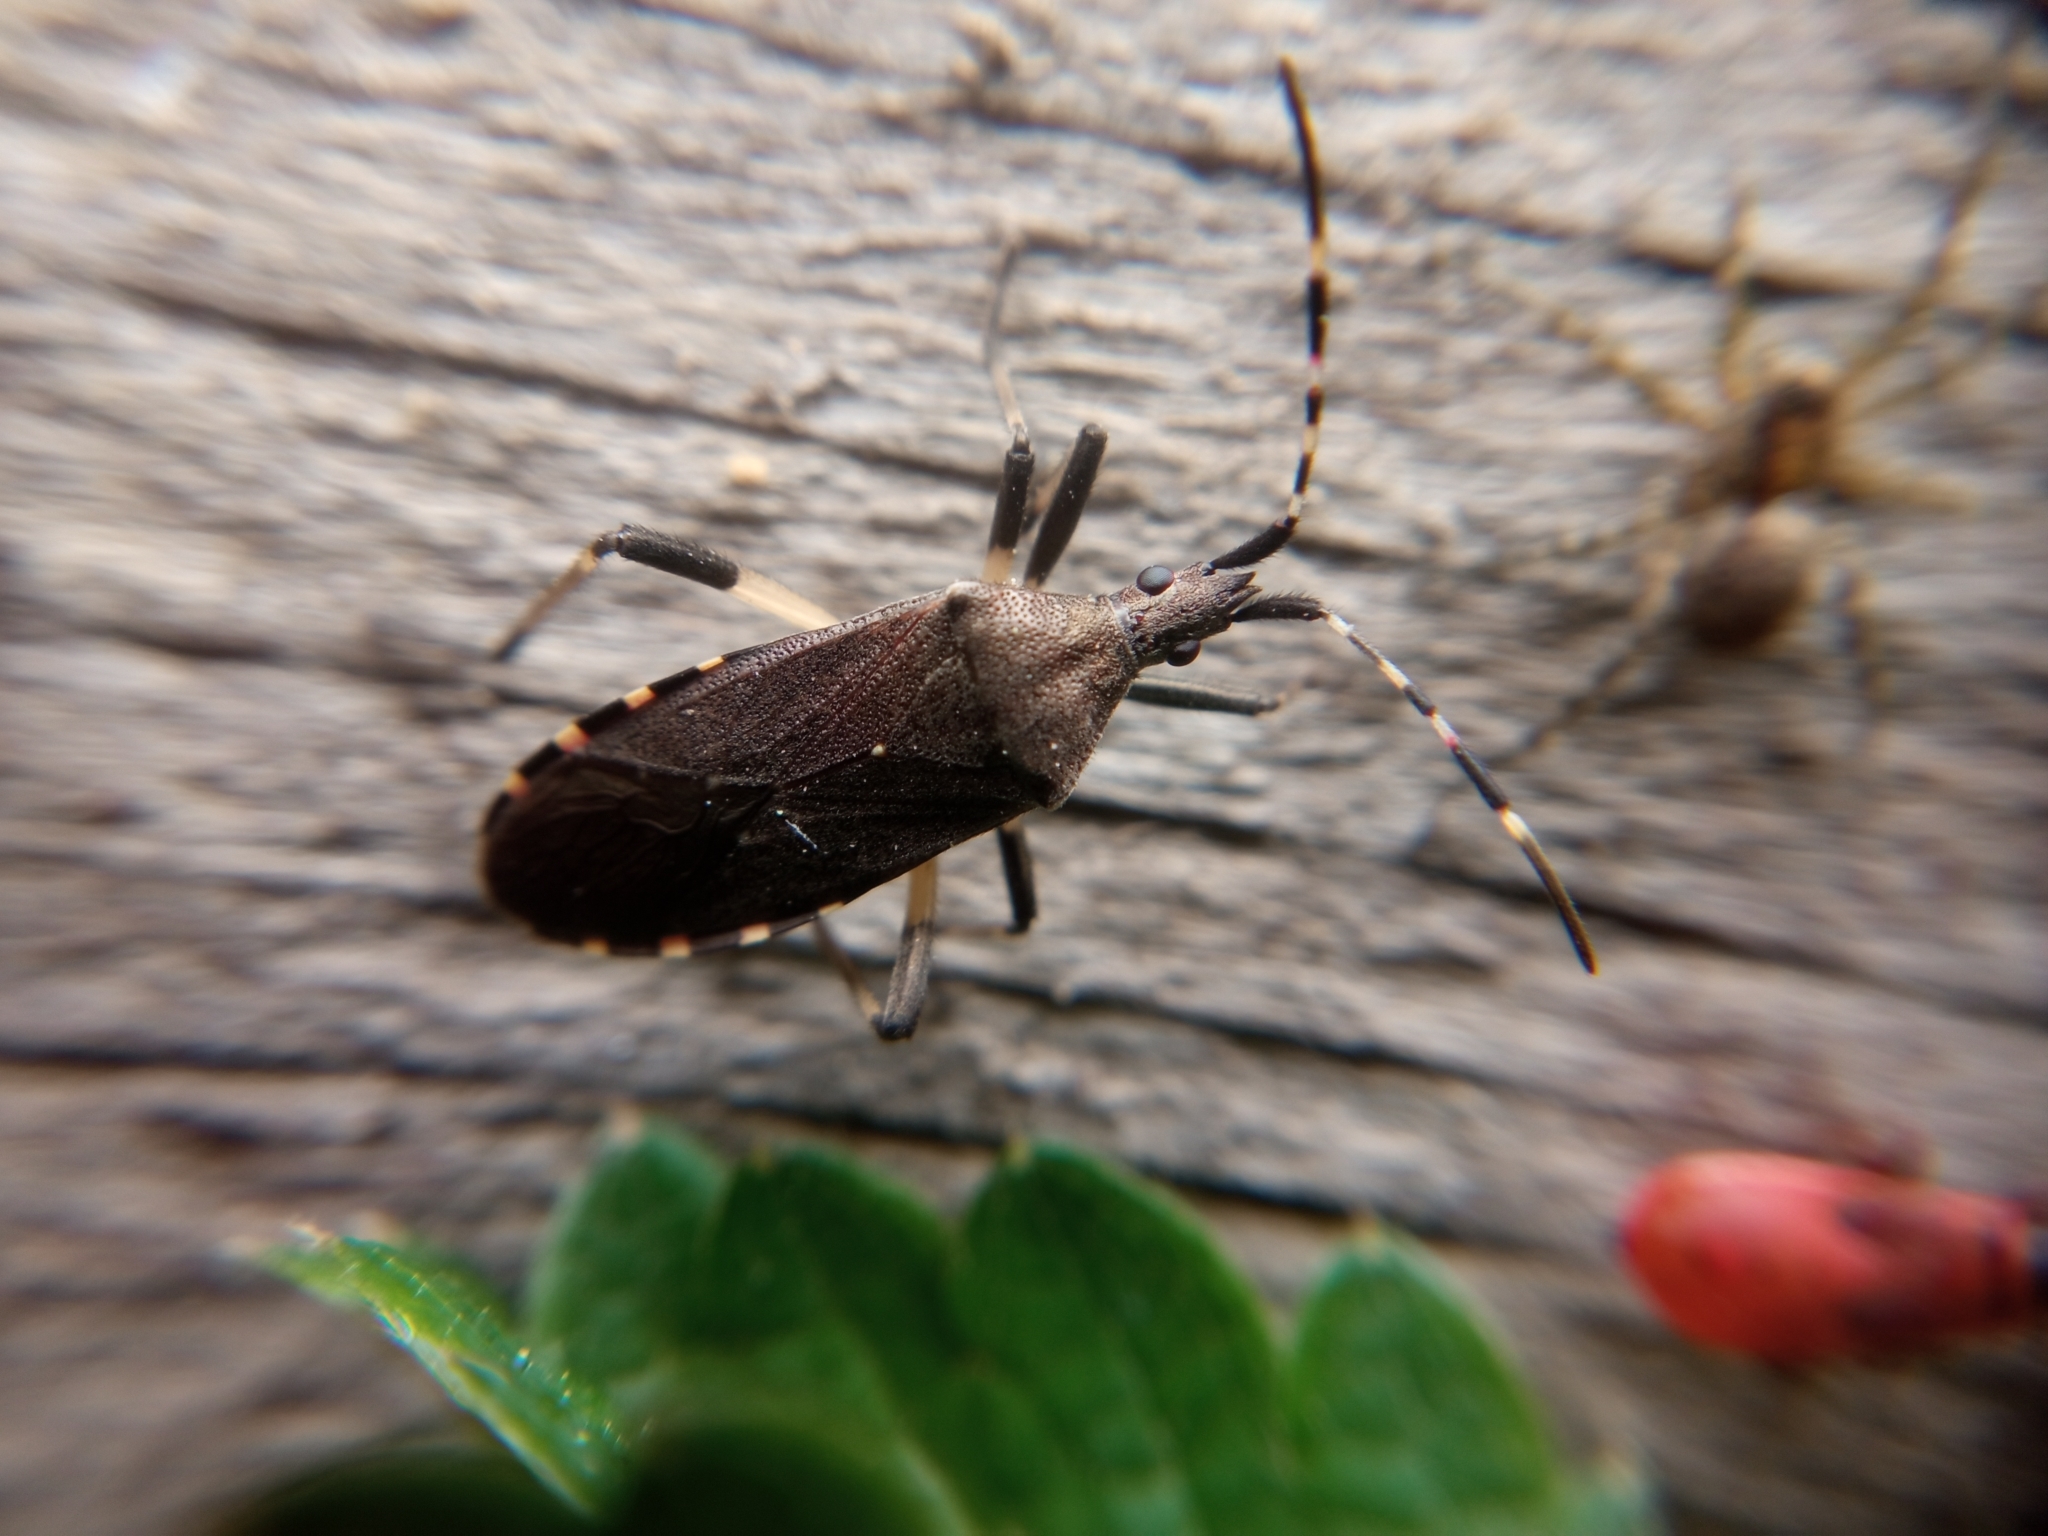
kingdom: Animalia
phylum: Arthropoda
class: Insecta
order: Hemiptera
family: Stenocephalidae
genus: Dicranocephalus
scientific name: Dicranocephalus agilis
